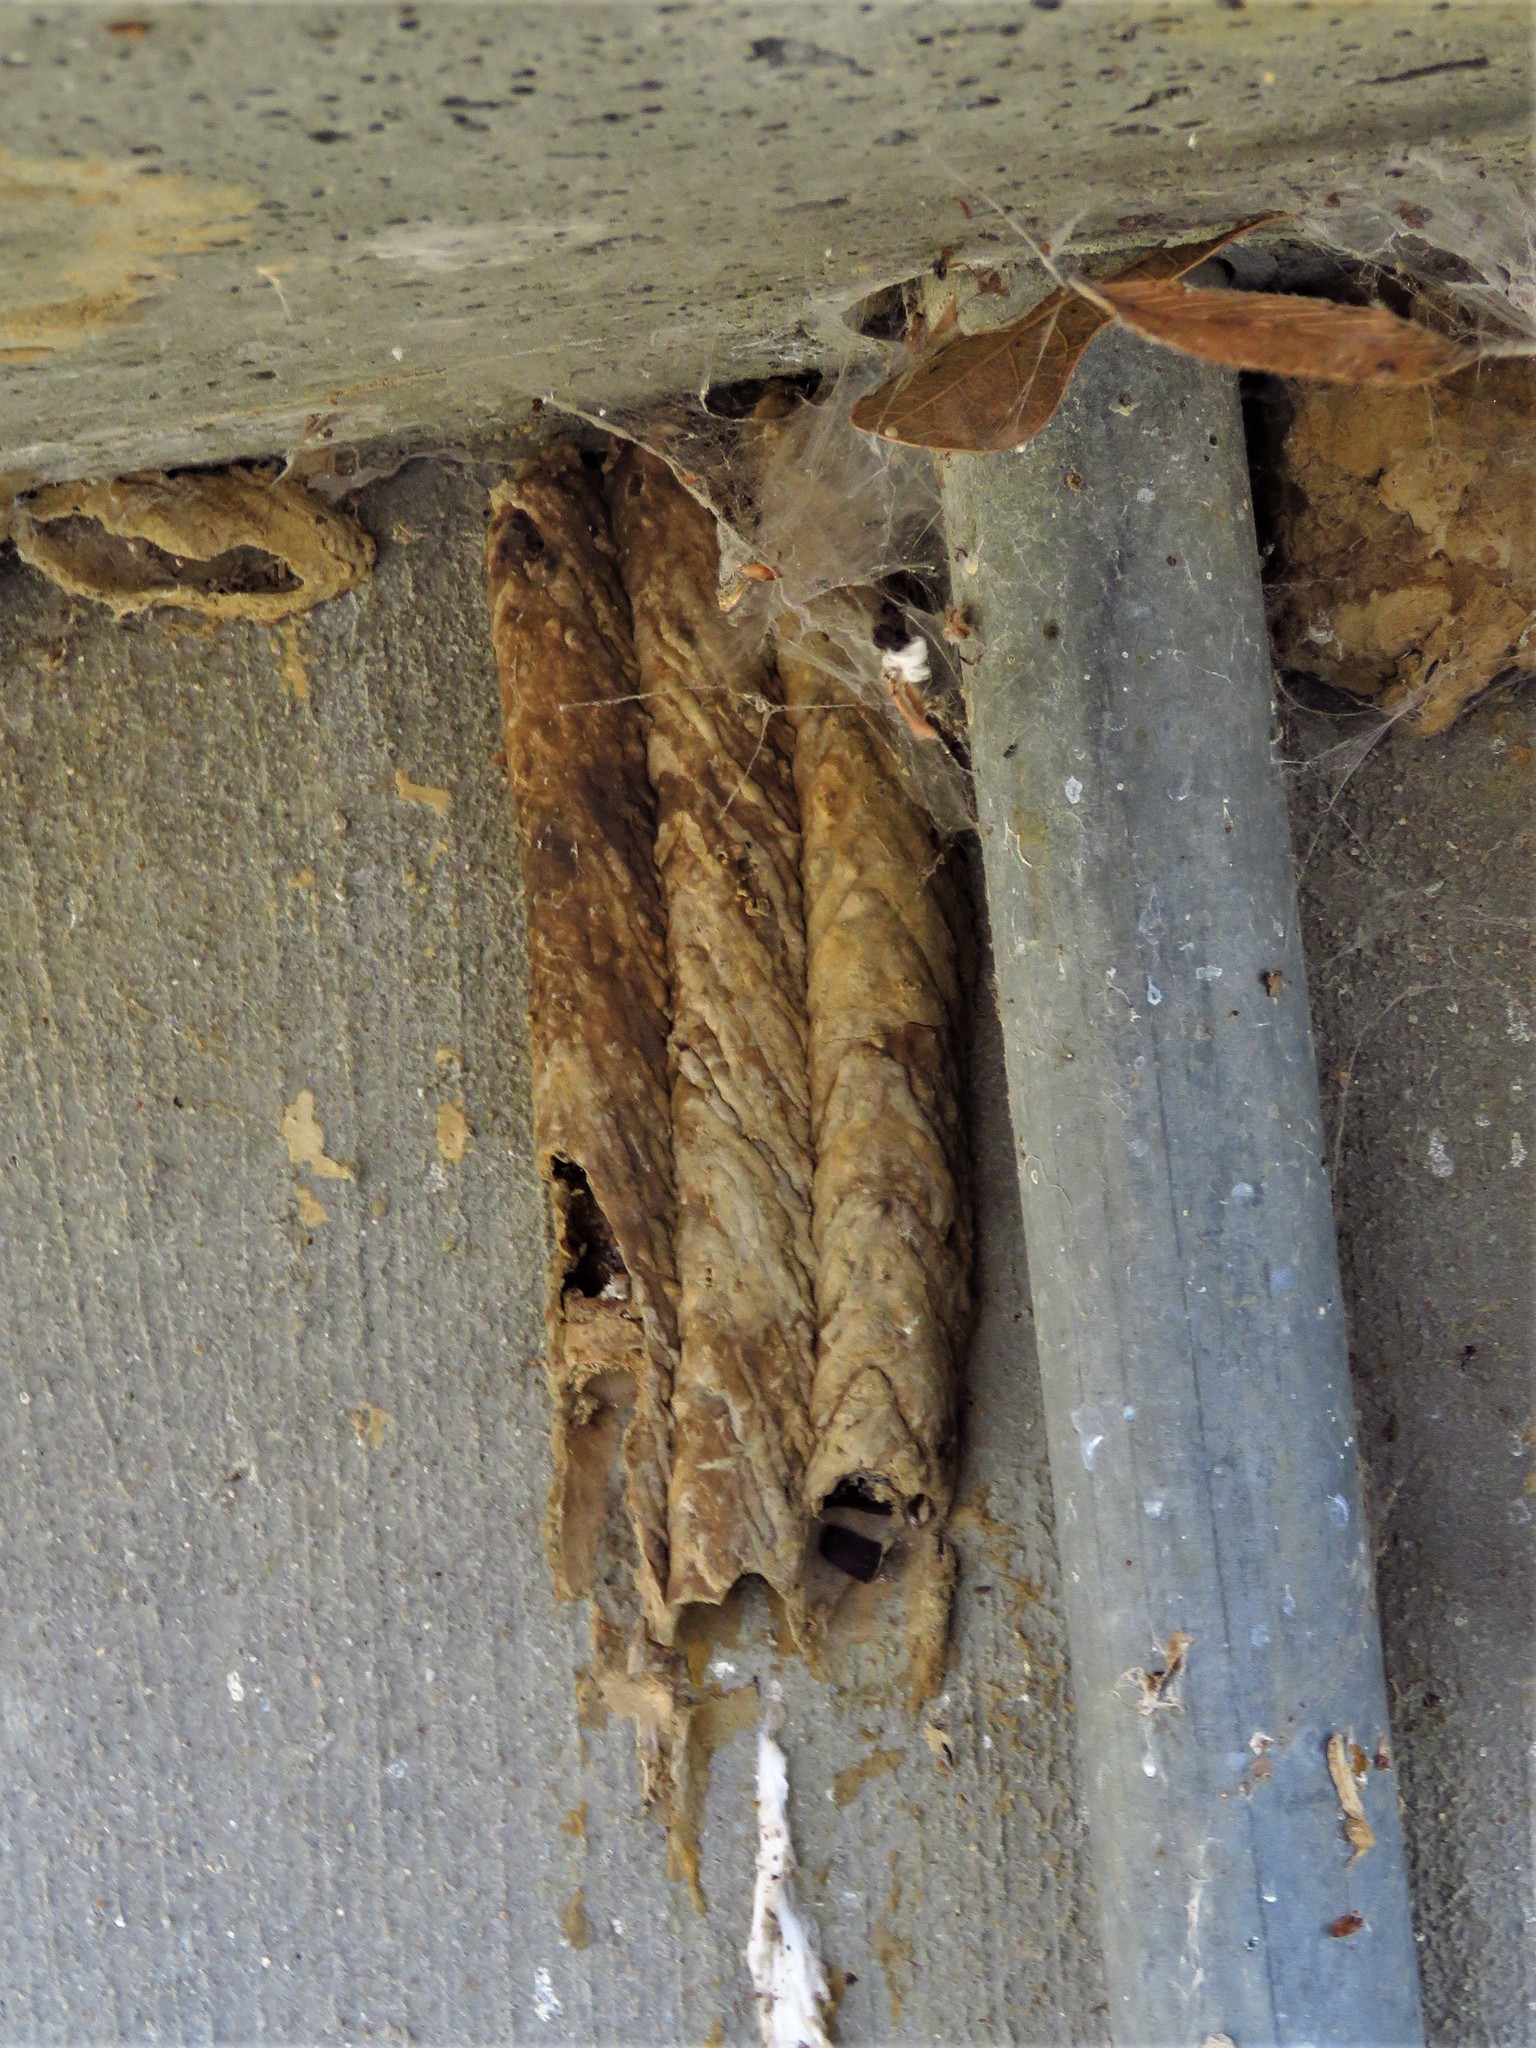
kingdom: Animalia
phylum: Arthropoda
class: Insecta
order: Hymenoptera
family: Crabronidae
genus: Trypoxylon
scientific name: Trypoxylon politum
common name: Organ-pipe mud-dauber wasp
